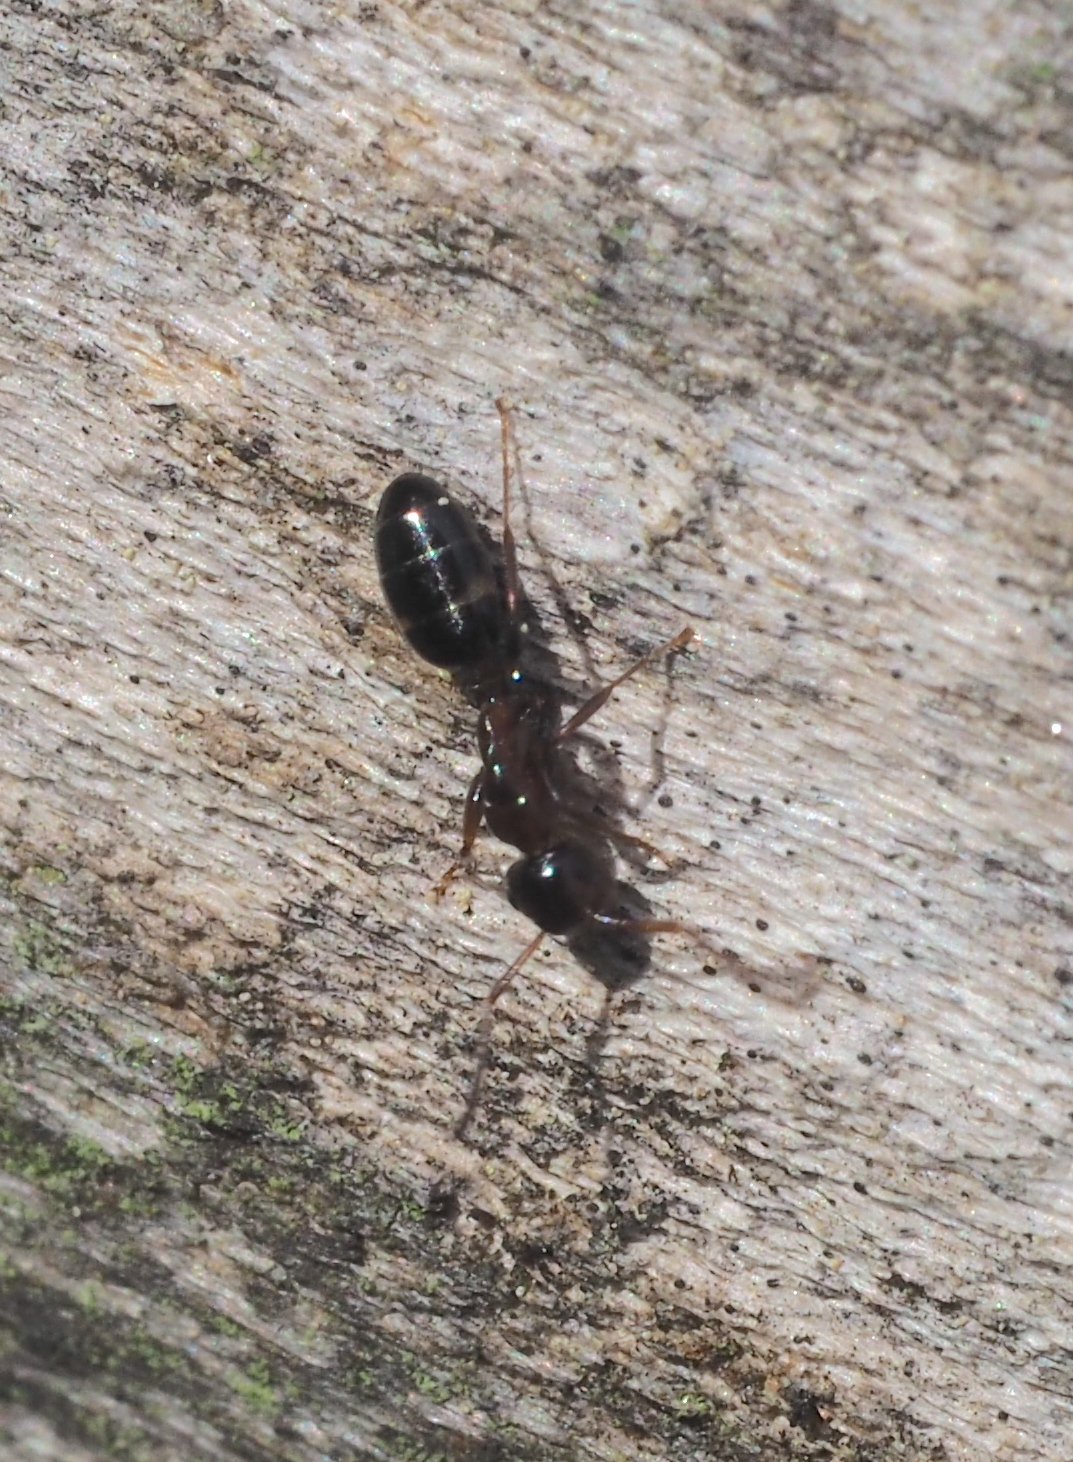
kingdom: Animalia
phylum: Arthropoda
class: Insecta
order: Hymenoptera
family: Formicidae
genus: Camponotus
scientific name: Camponotus truncatus
